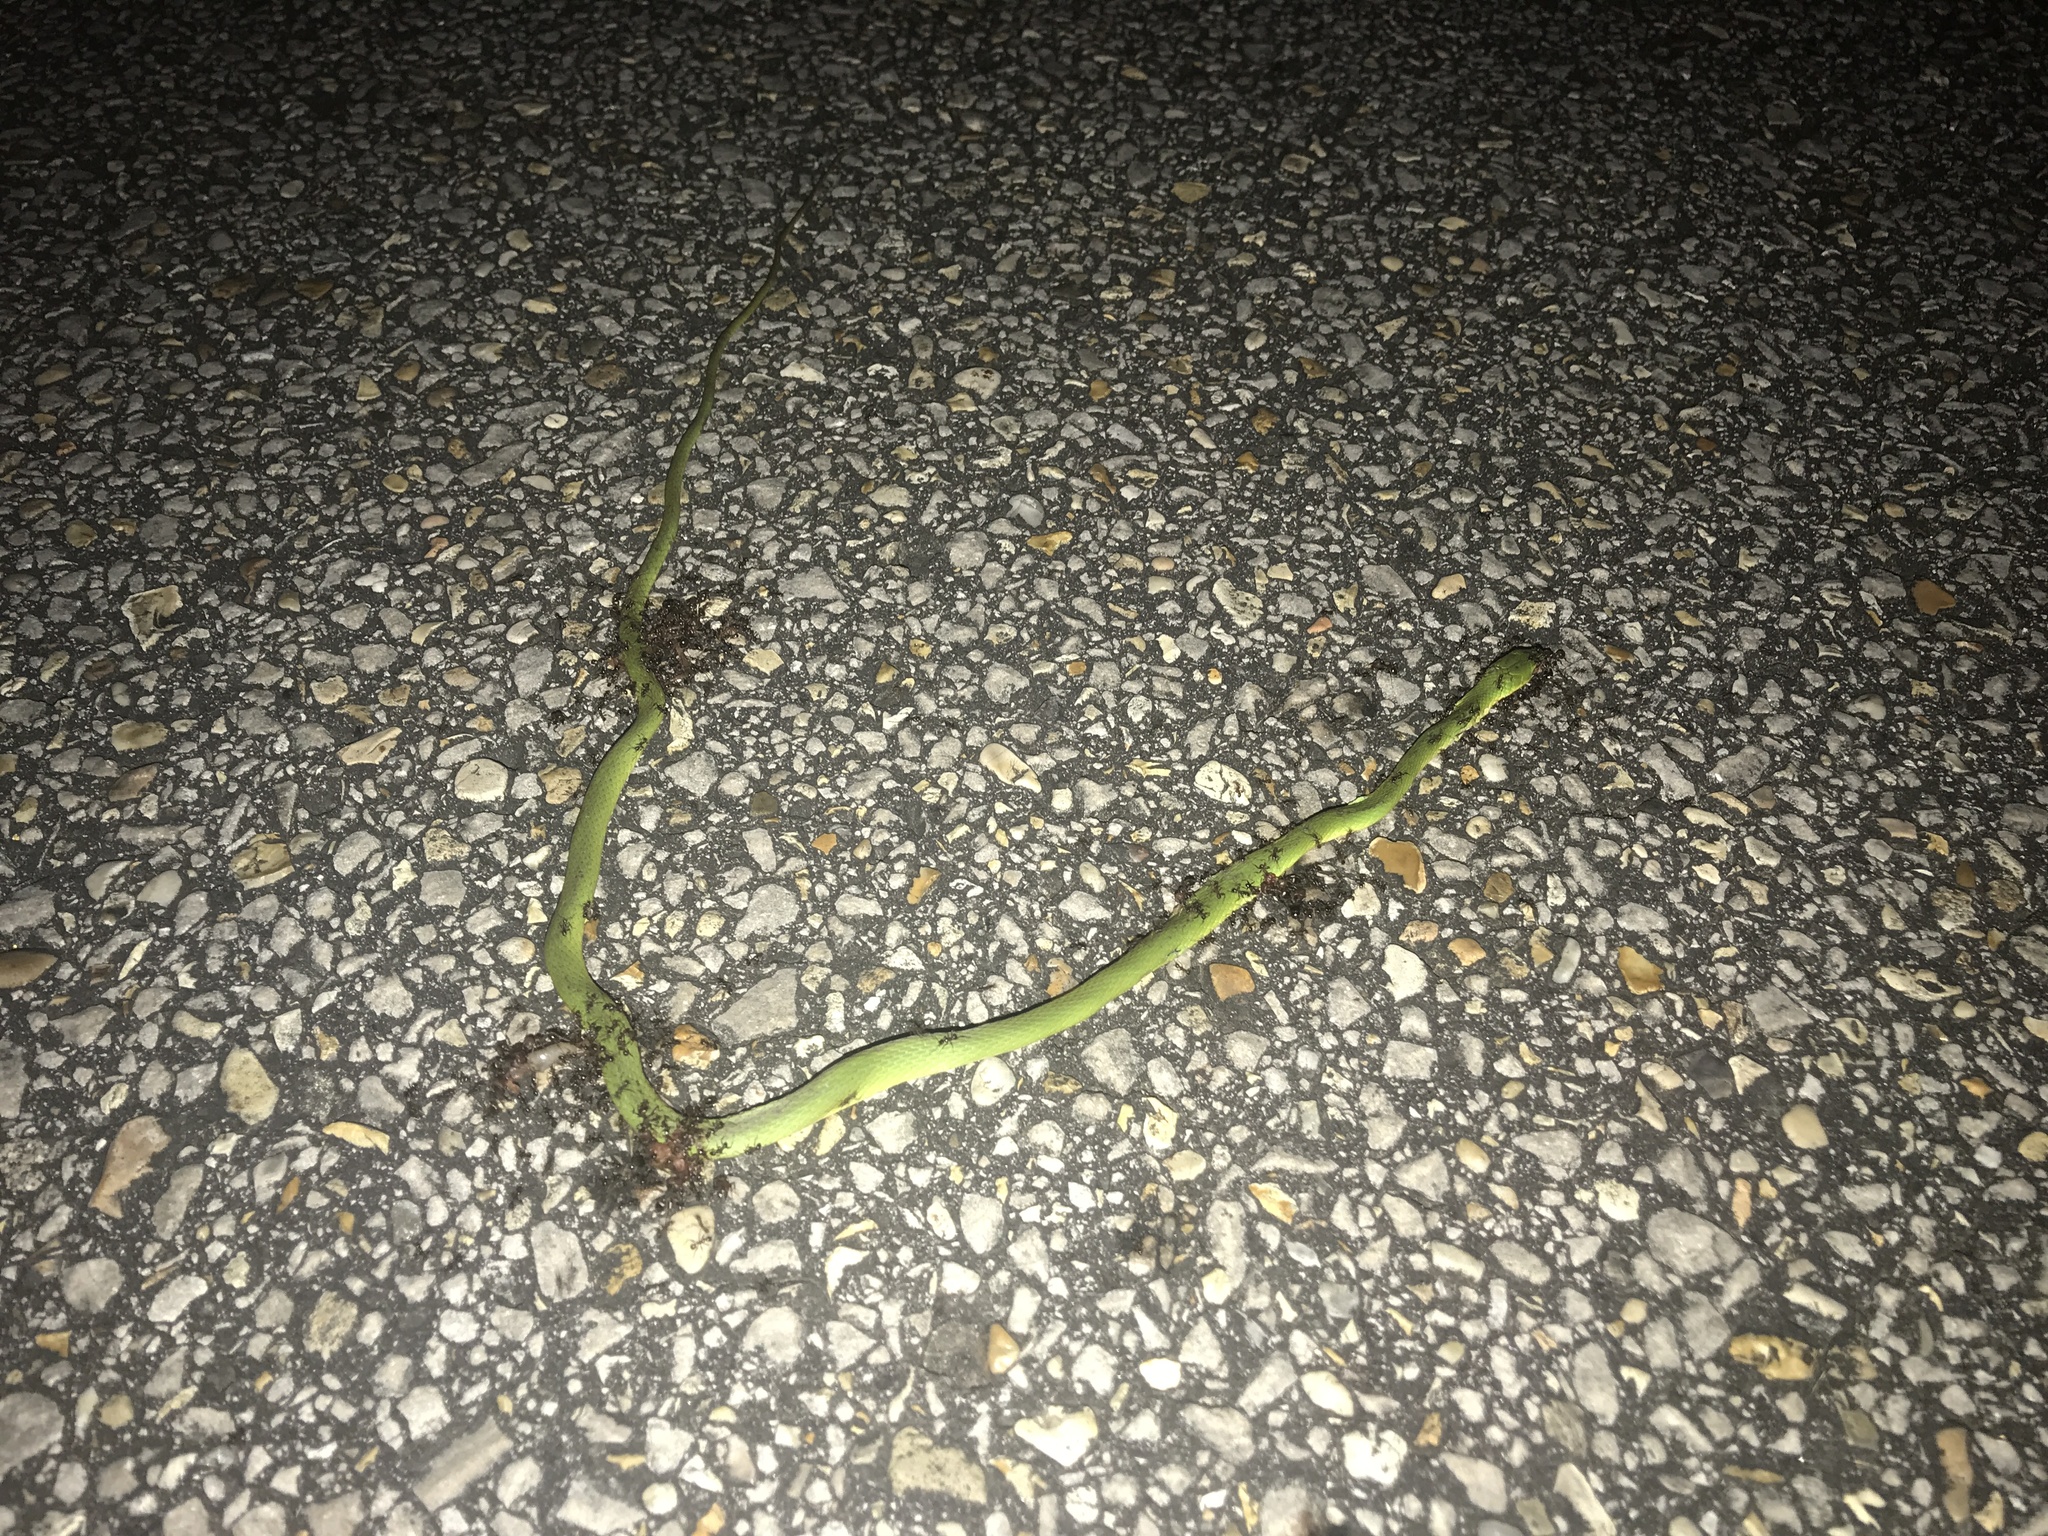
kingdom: Animalia
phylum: Chordata
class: Squamata
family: Colubridae
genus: Opheodrys
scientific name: Opheodrys aestivus
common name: Rough greensnake
